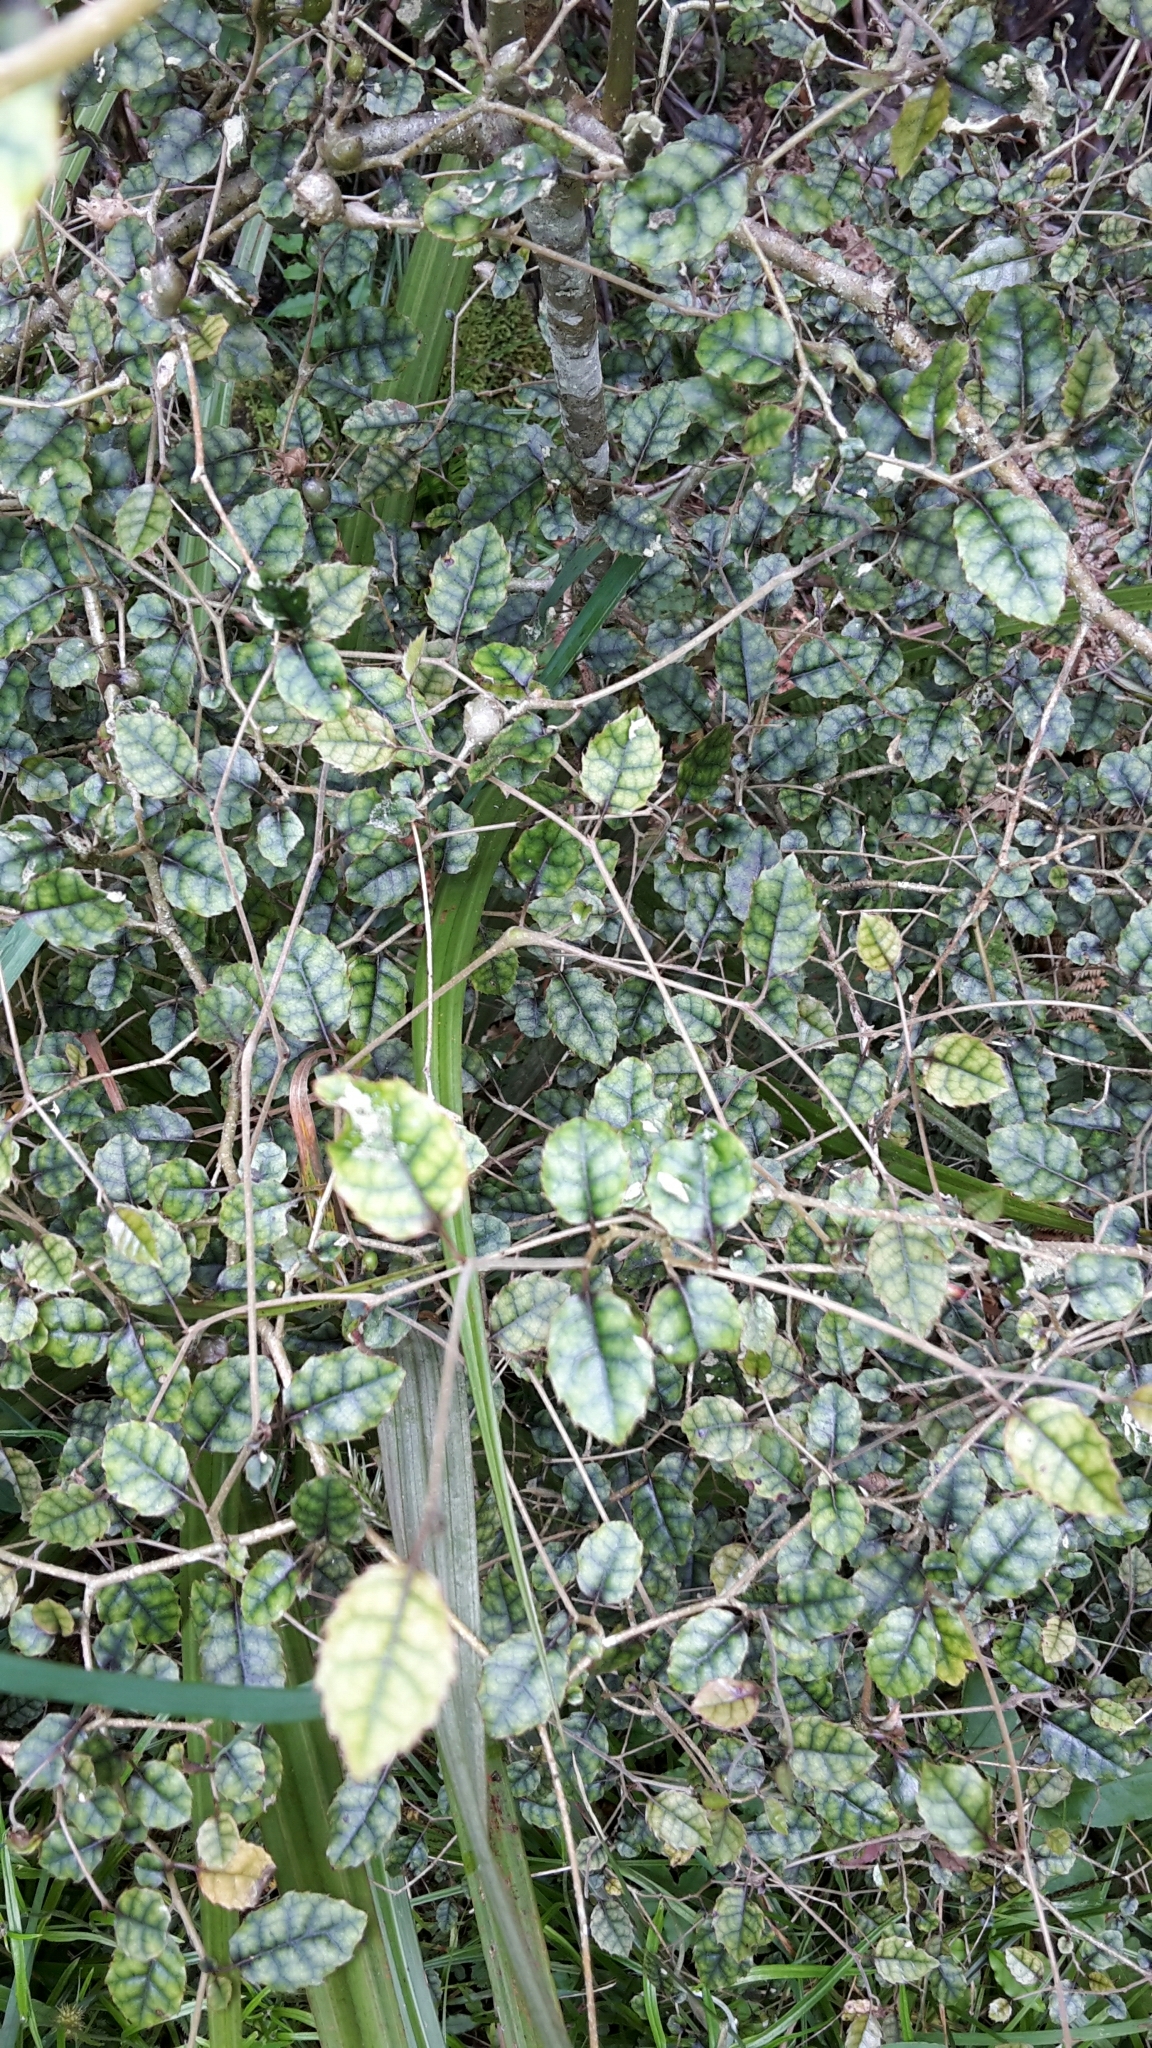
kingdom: Plantae
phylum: Tracheophyta
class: Magnoliopsida
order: Asterales
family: Rousseaceae
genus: Carpodetus
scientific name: Carpodetus serratus
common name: White mapau
